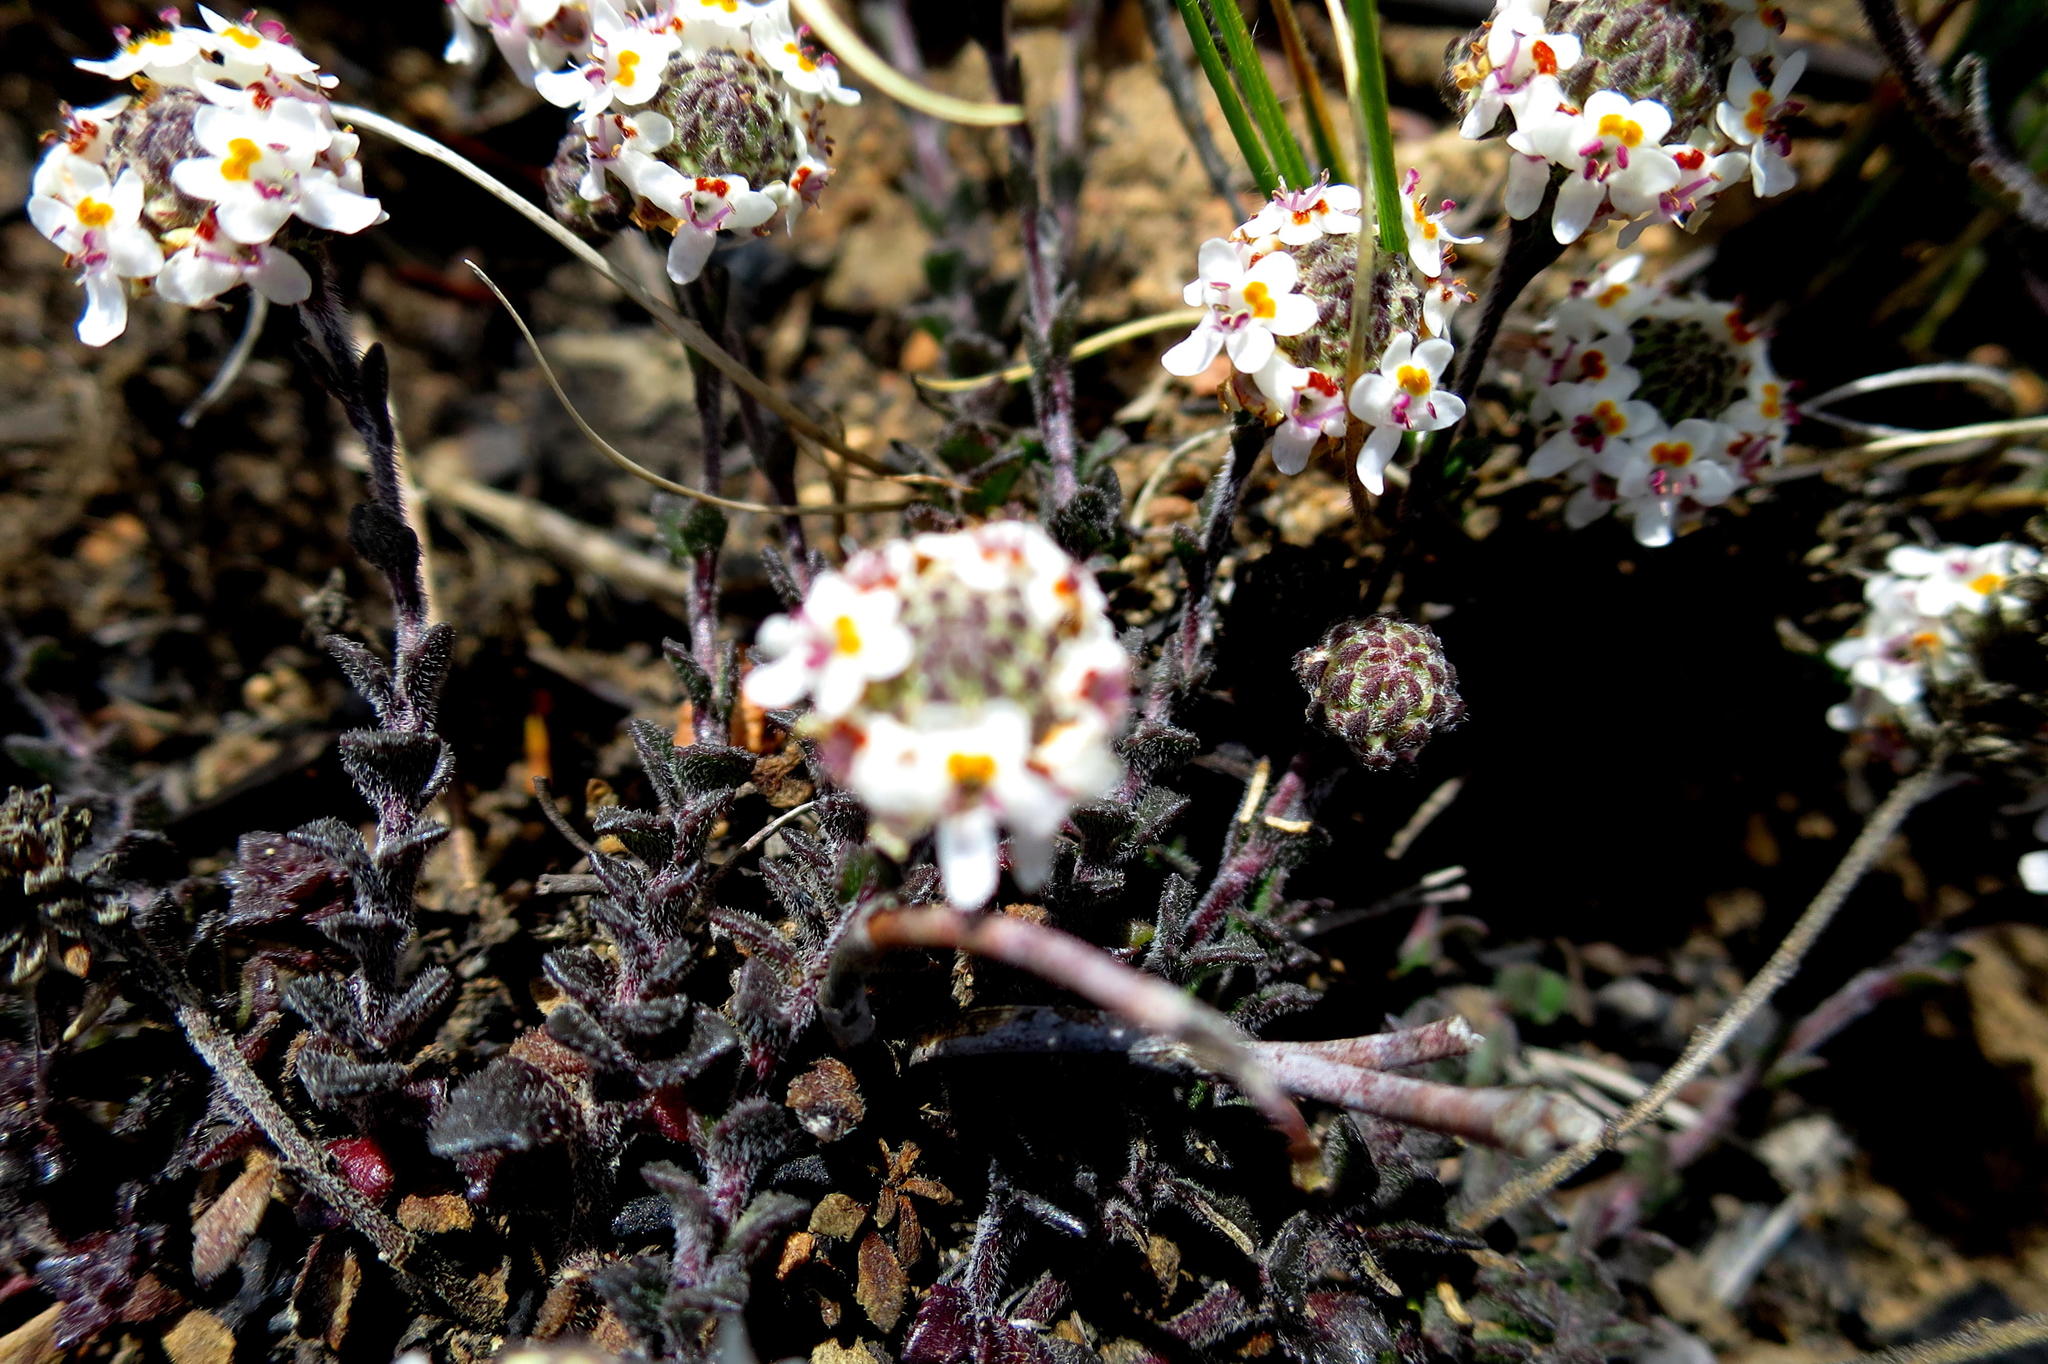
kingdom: Plantae
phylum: Tracheophyta
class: Magnoliopsida
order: Lamiales
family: Scrophulariaceae
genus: Pseudoselago
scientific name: Pseudoselago prostrata
